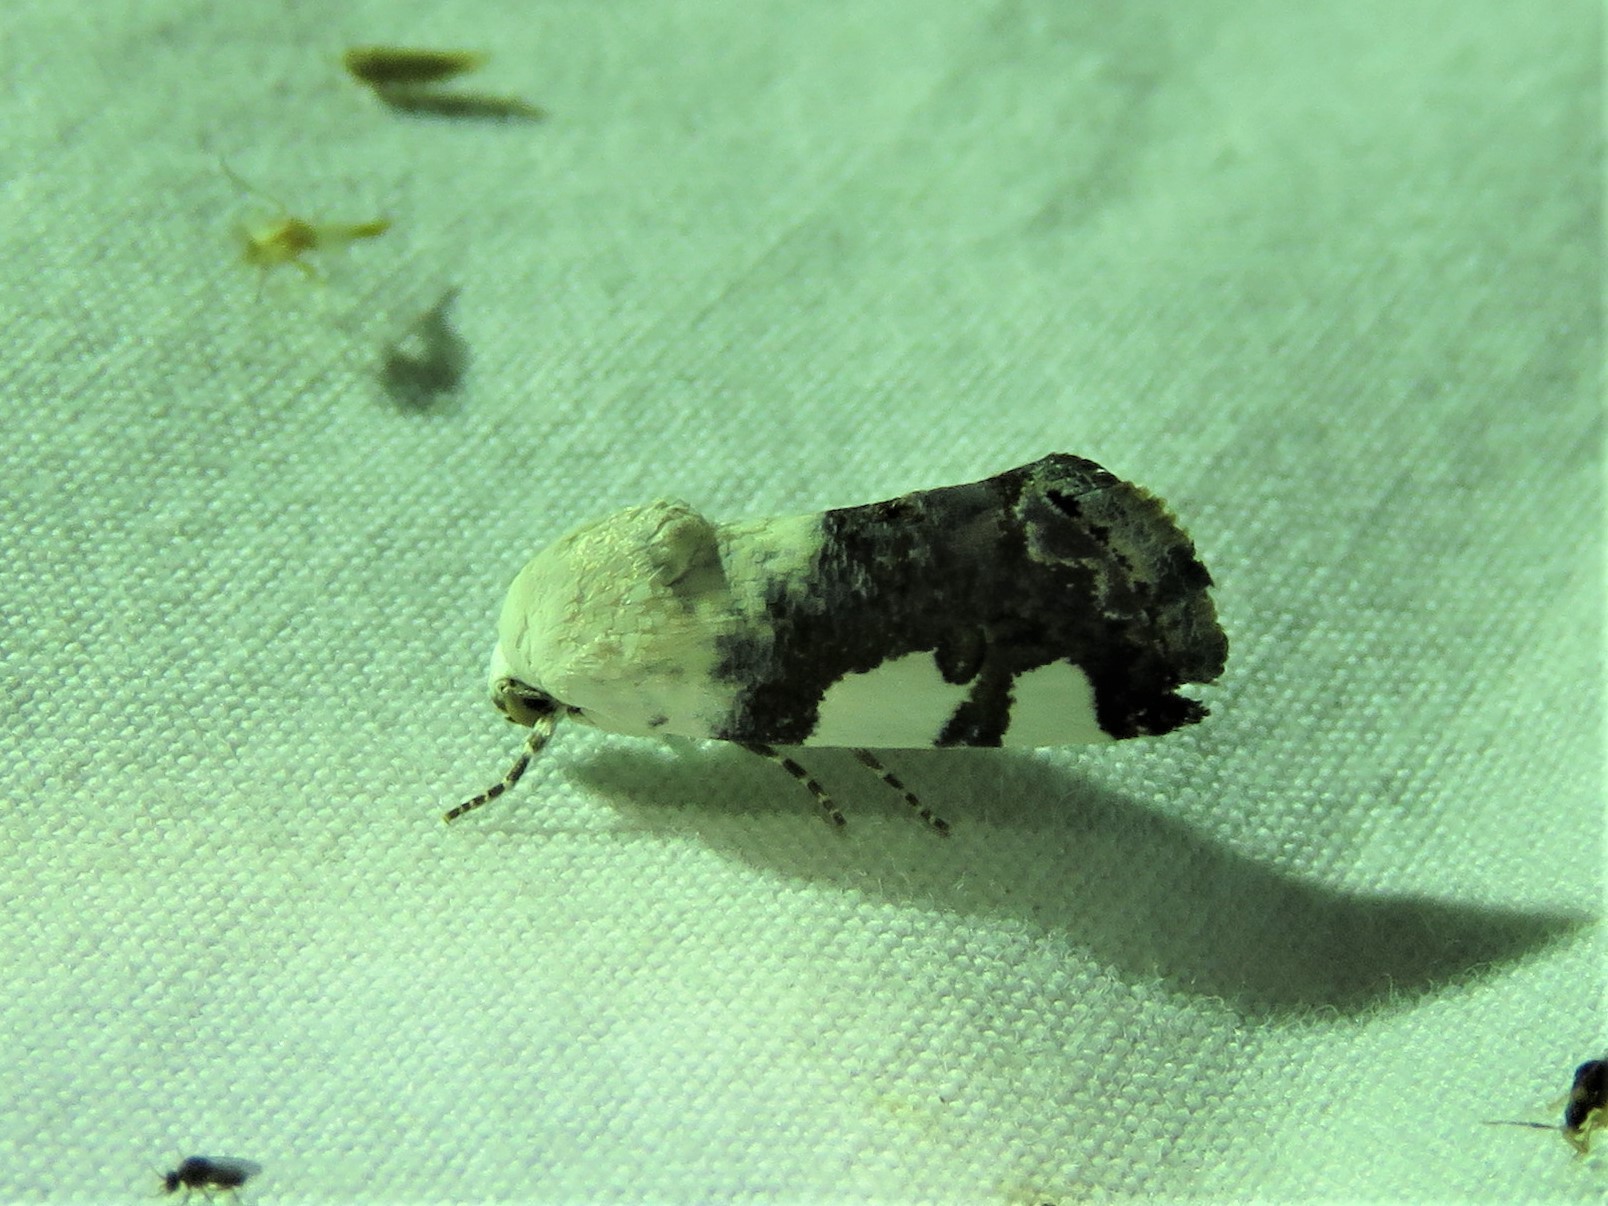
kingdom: Animalia
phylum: Arthropoda
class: Insecta
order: Lepidoptera
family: Noctuidae
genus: Acontia
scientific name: Acontia quadriplaga
